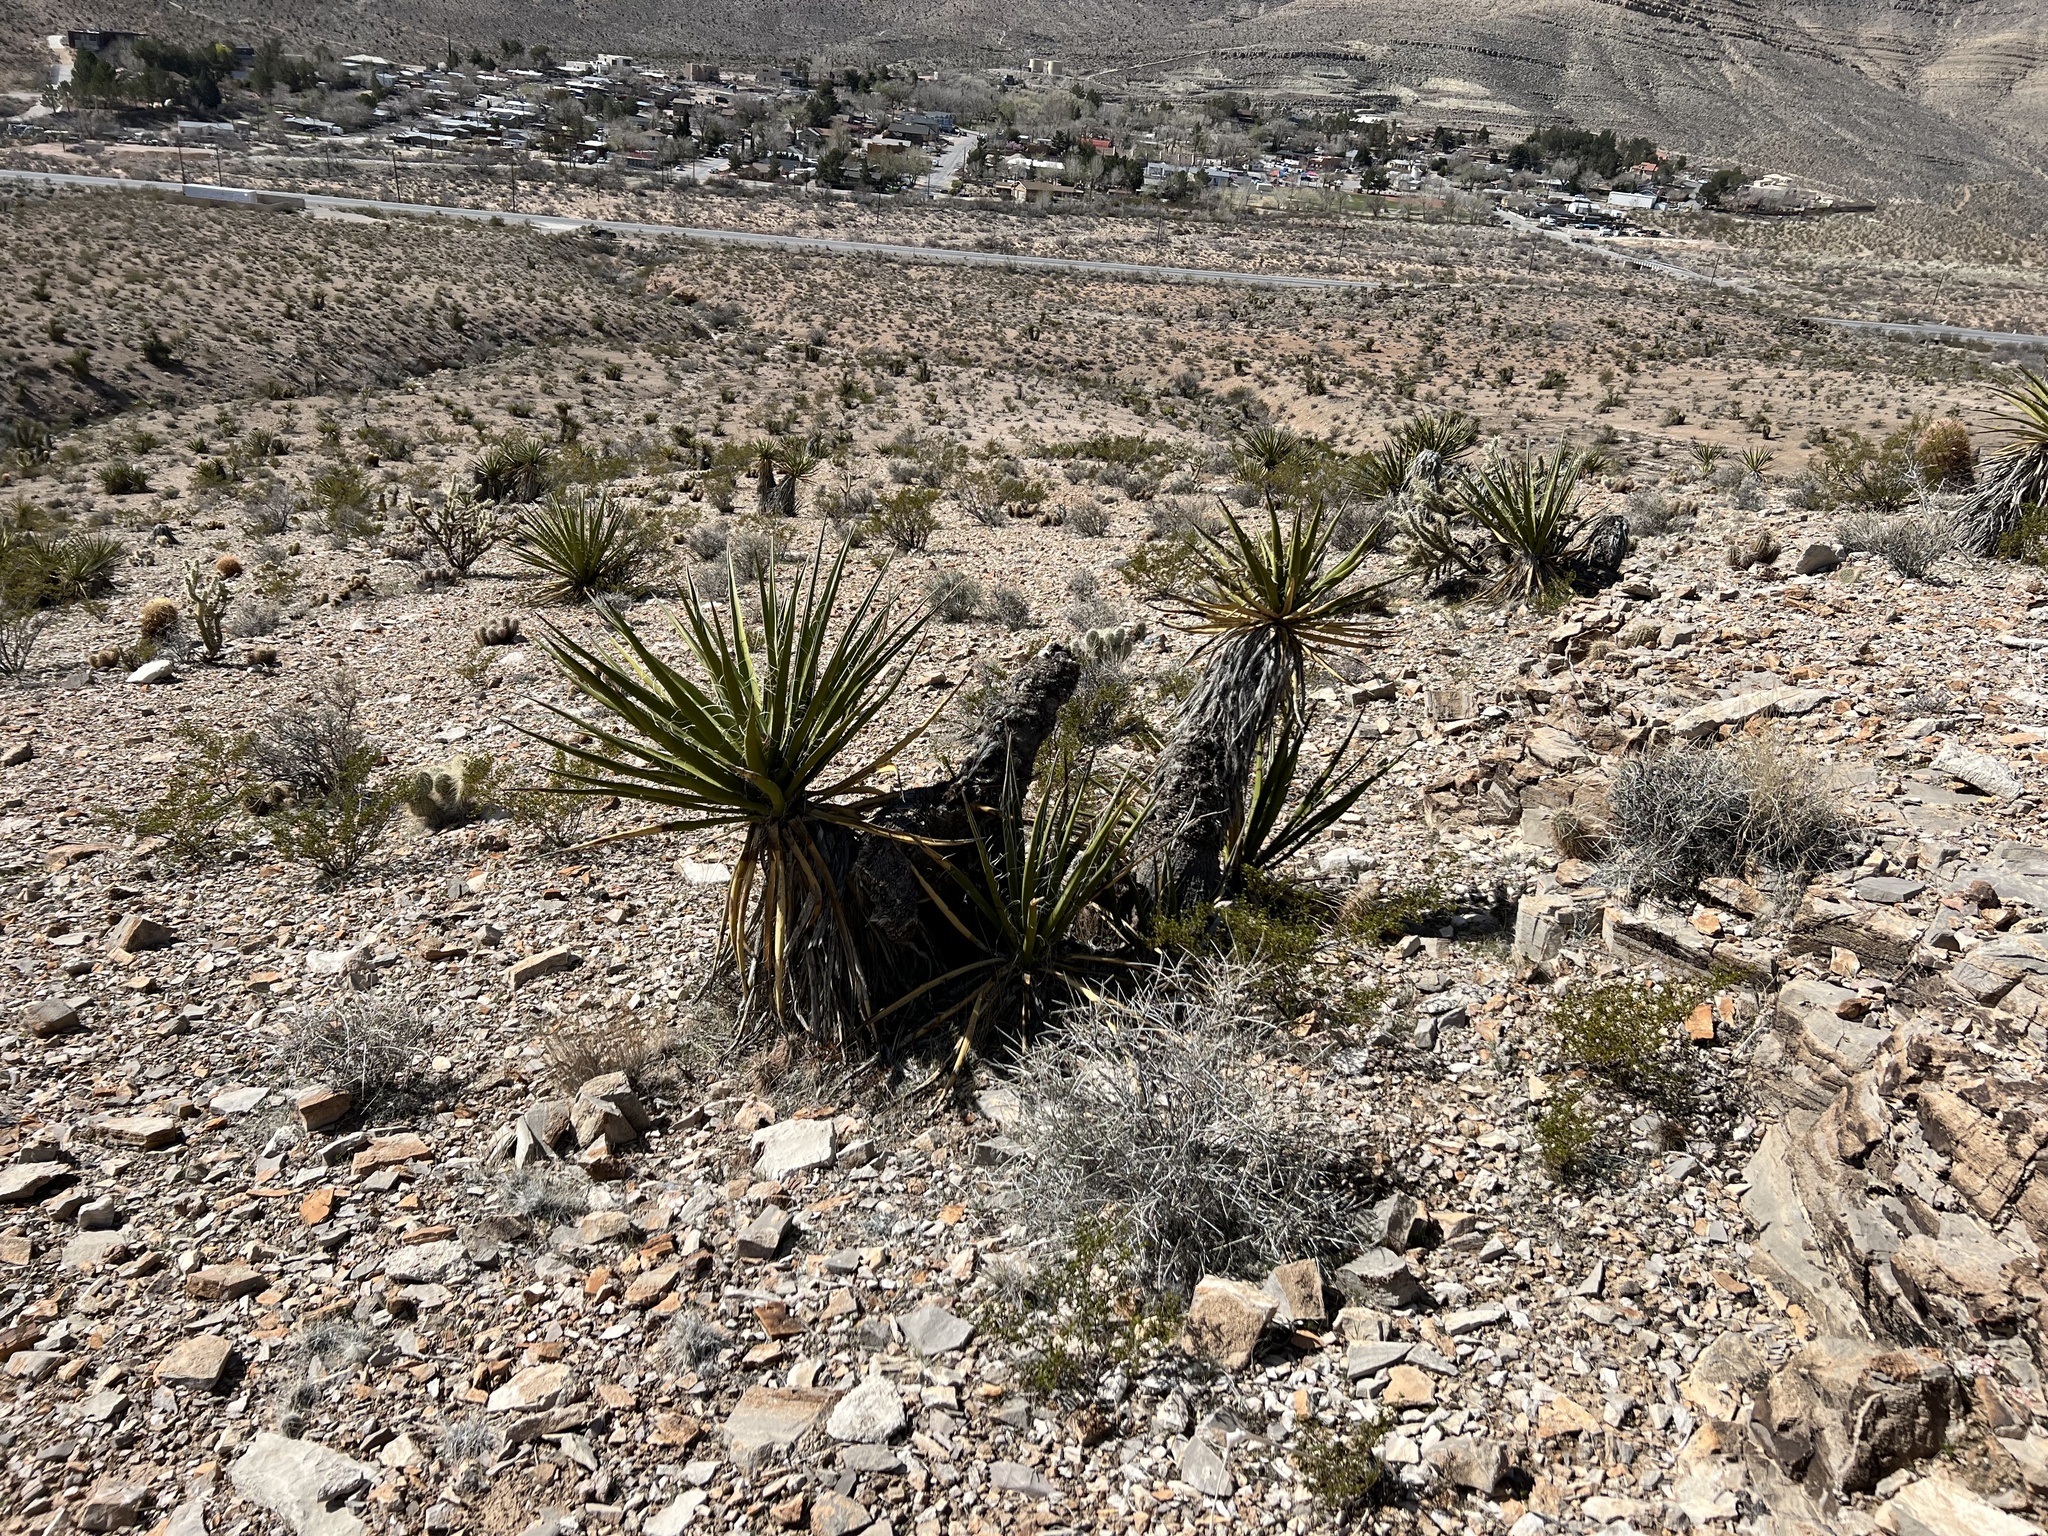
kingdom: Plantae
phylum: Tracheophyta
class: Liliopsida
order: Asparagales
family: Asparagaceae
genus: Yucca
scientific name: Yucca schidigera
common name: Mojave yucca
